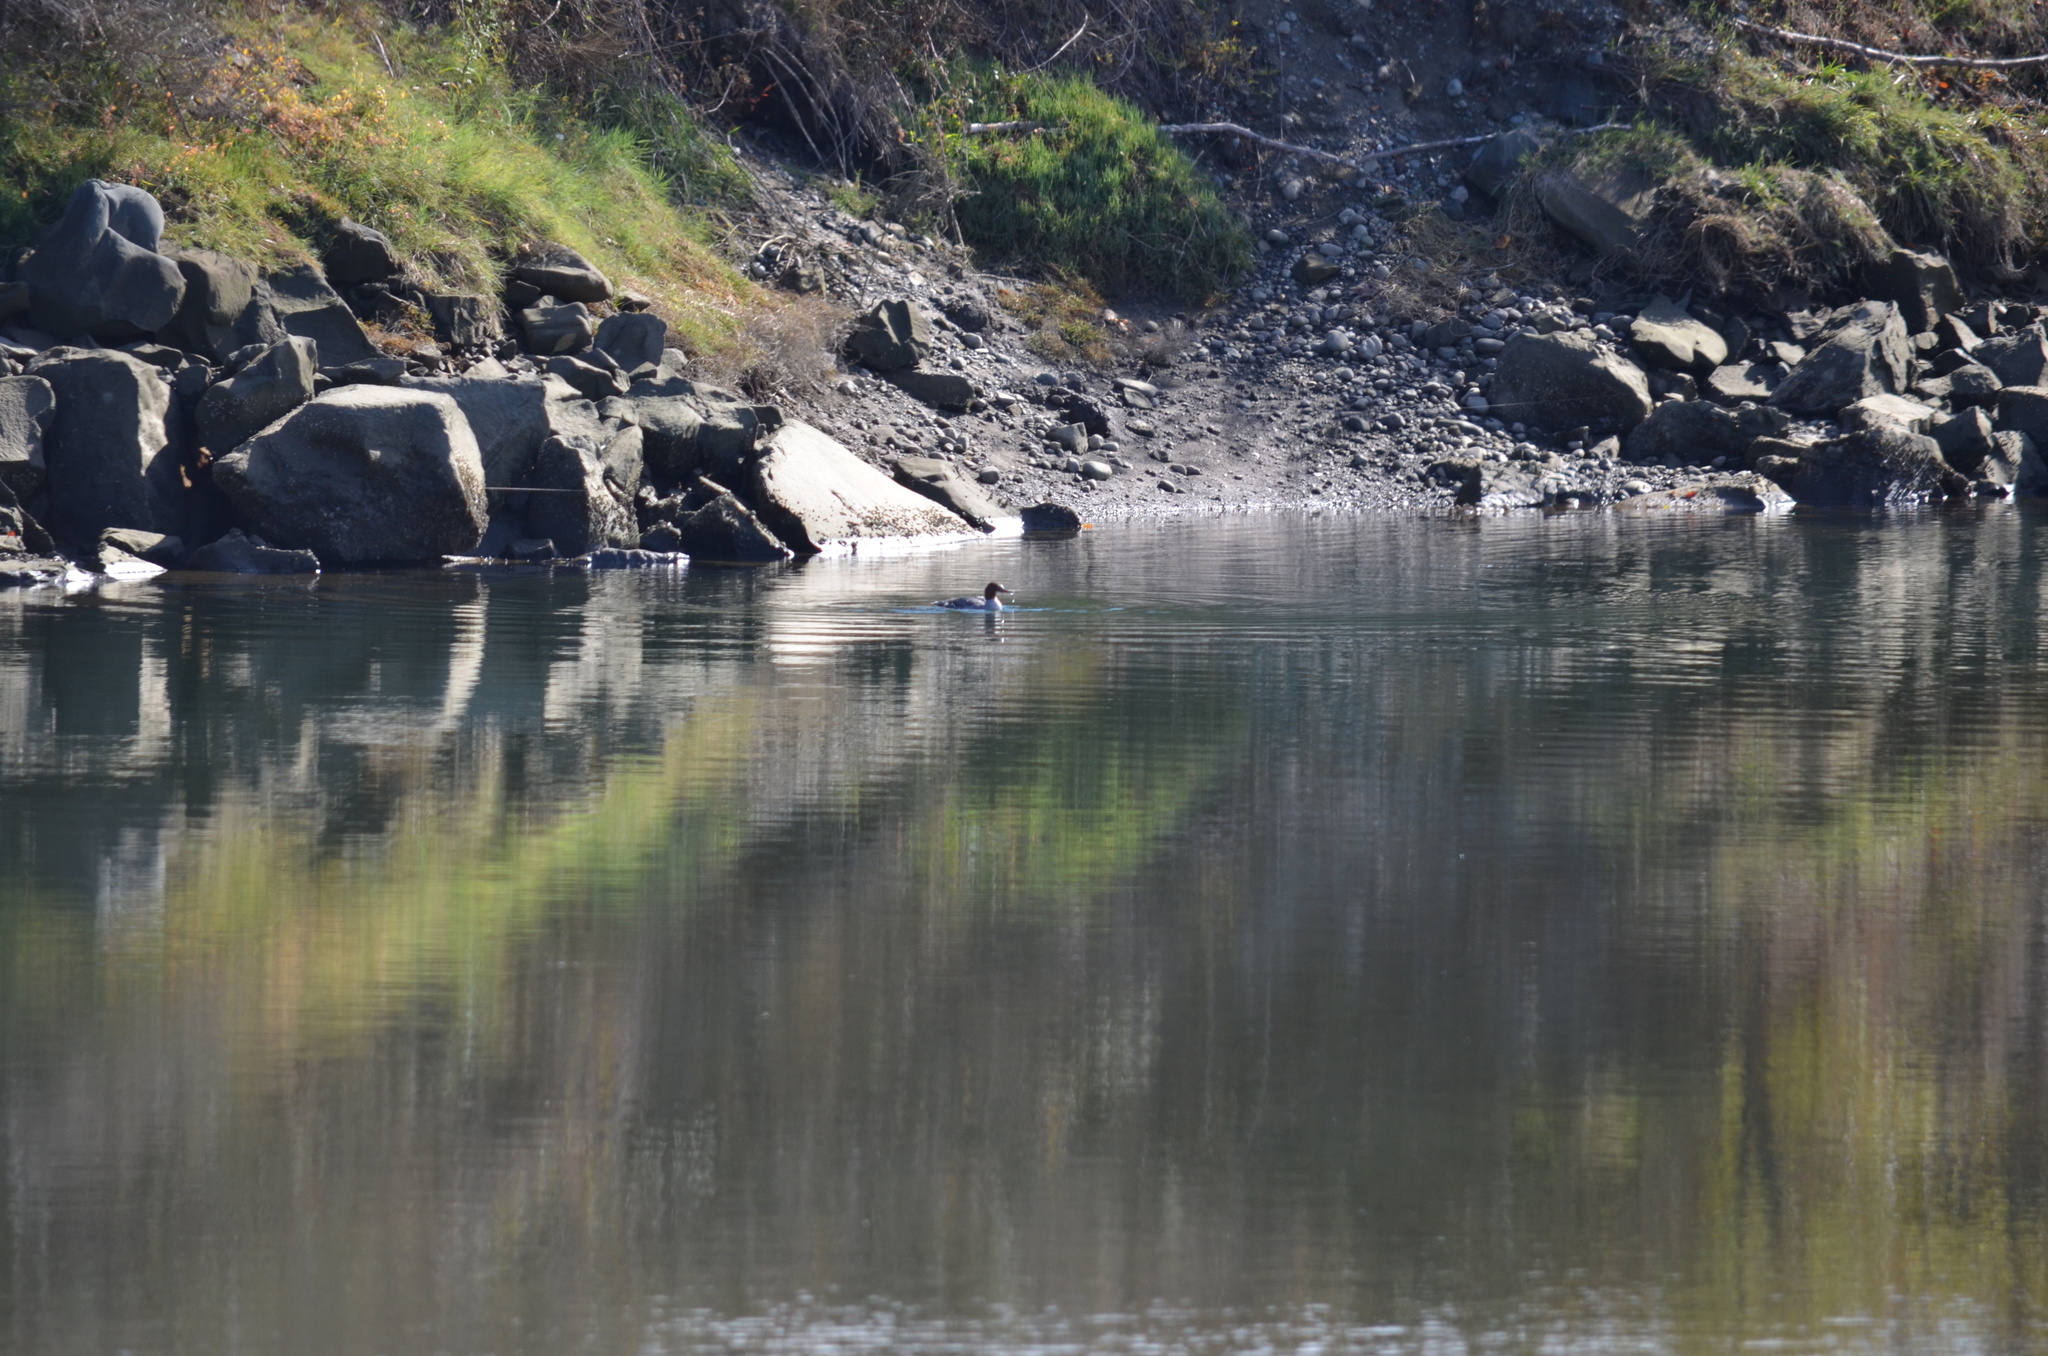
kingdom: Animalia
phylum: Chordata
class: Aves
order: Anseriformes
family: Anatidae
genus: Mergus
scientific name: Mergus merganser
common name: Common merganser
